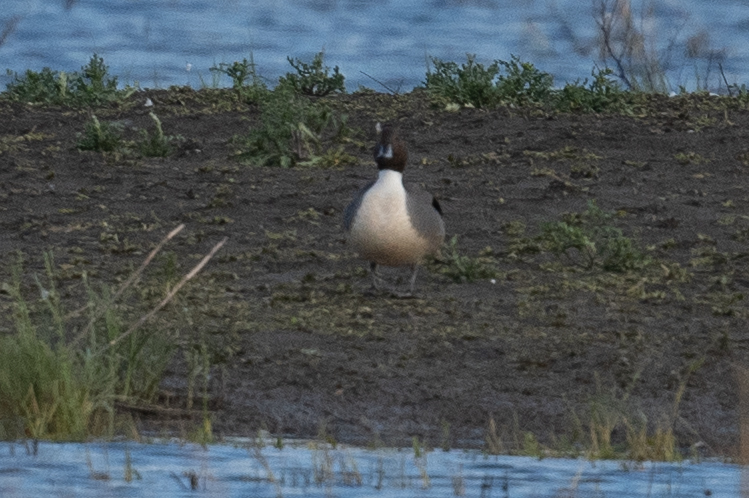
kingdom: Animalia
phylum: Chordata
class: Aves
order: Anseriformes
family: Anatidae
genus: Anas
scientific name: Anas acuta
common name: Northern pintail
